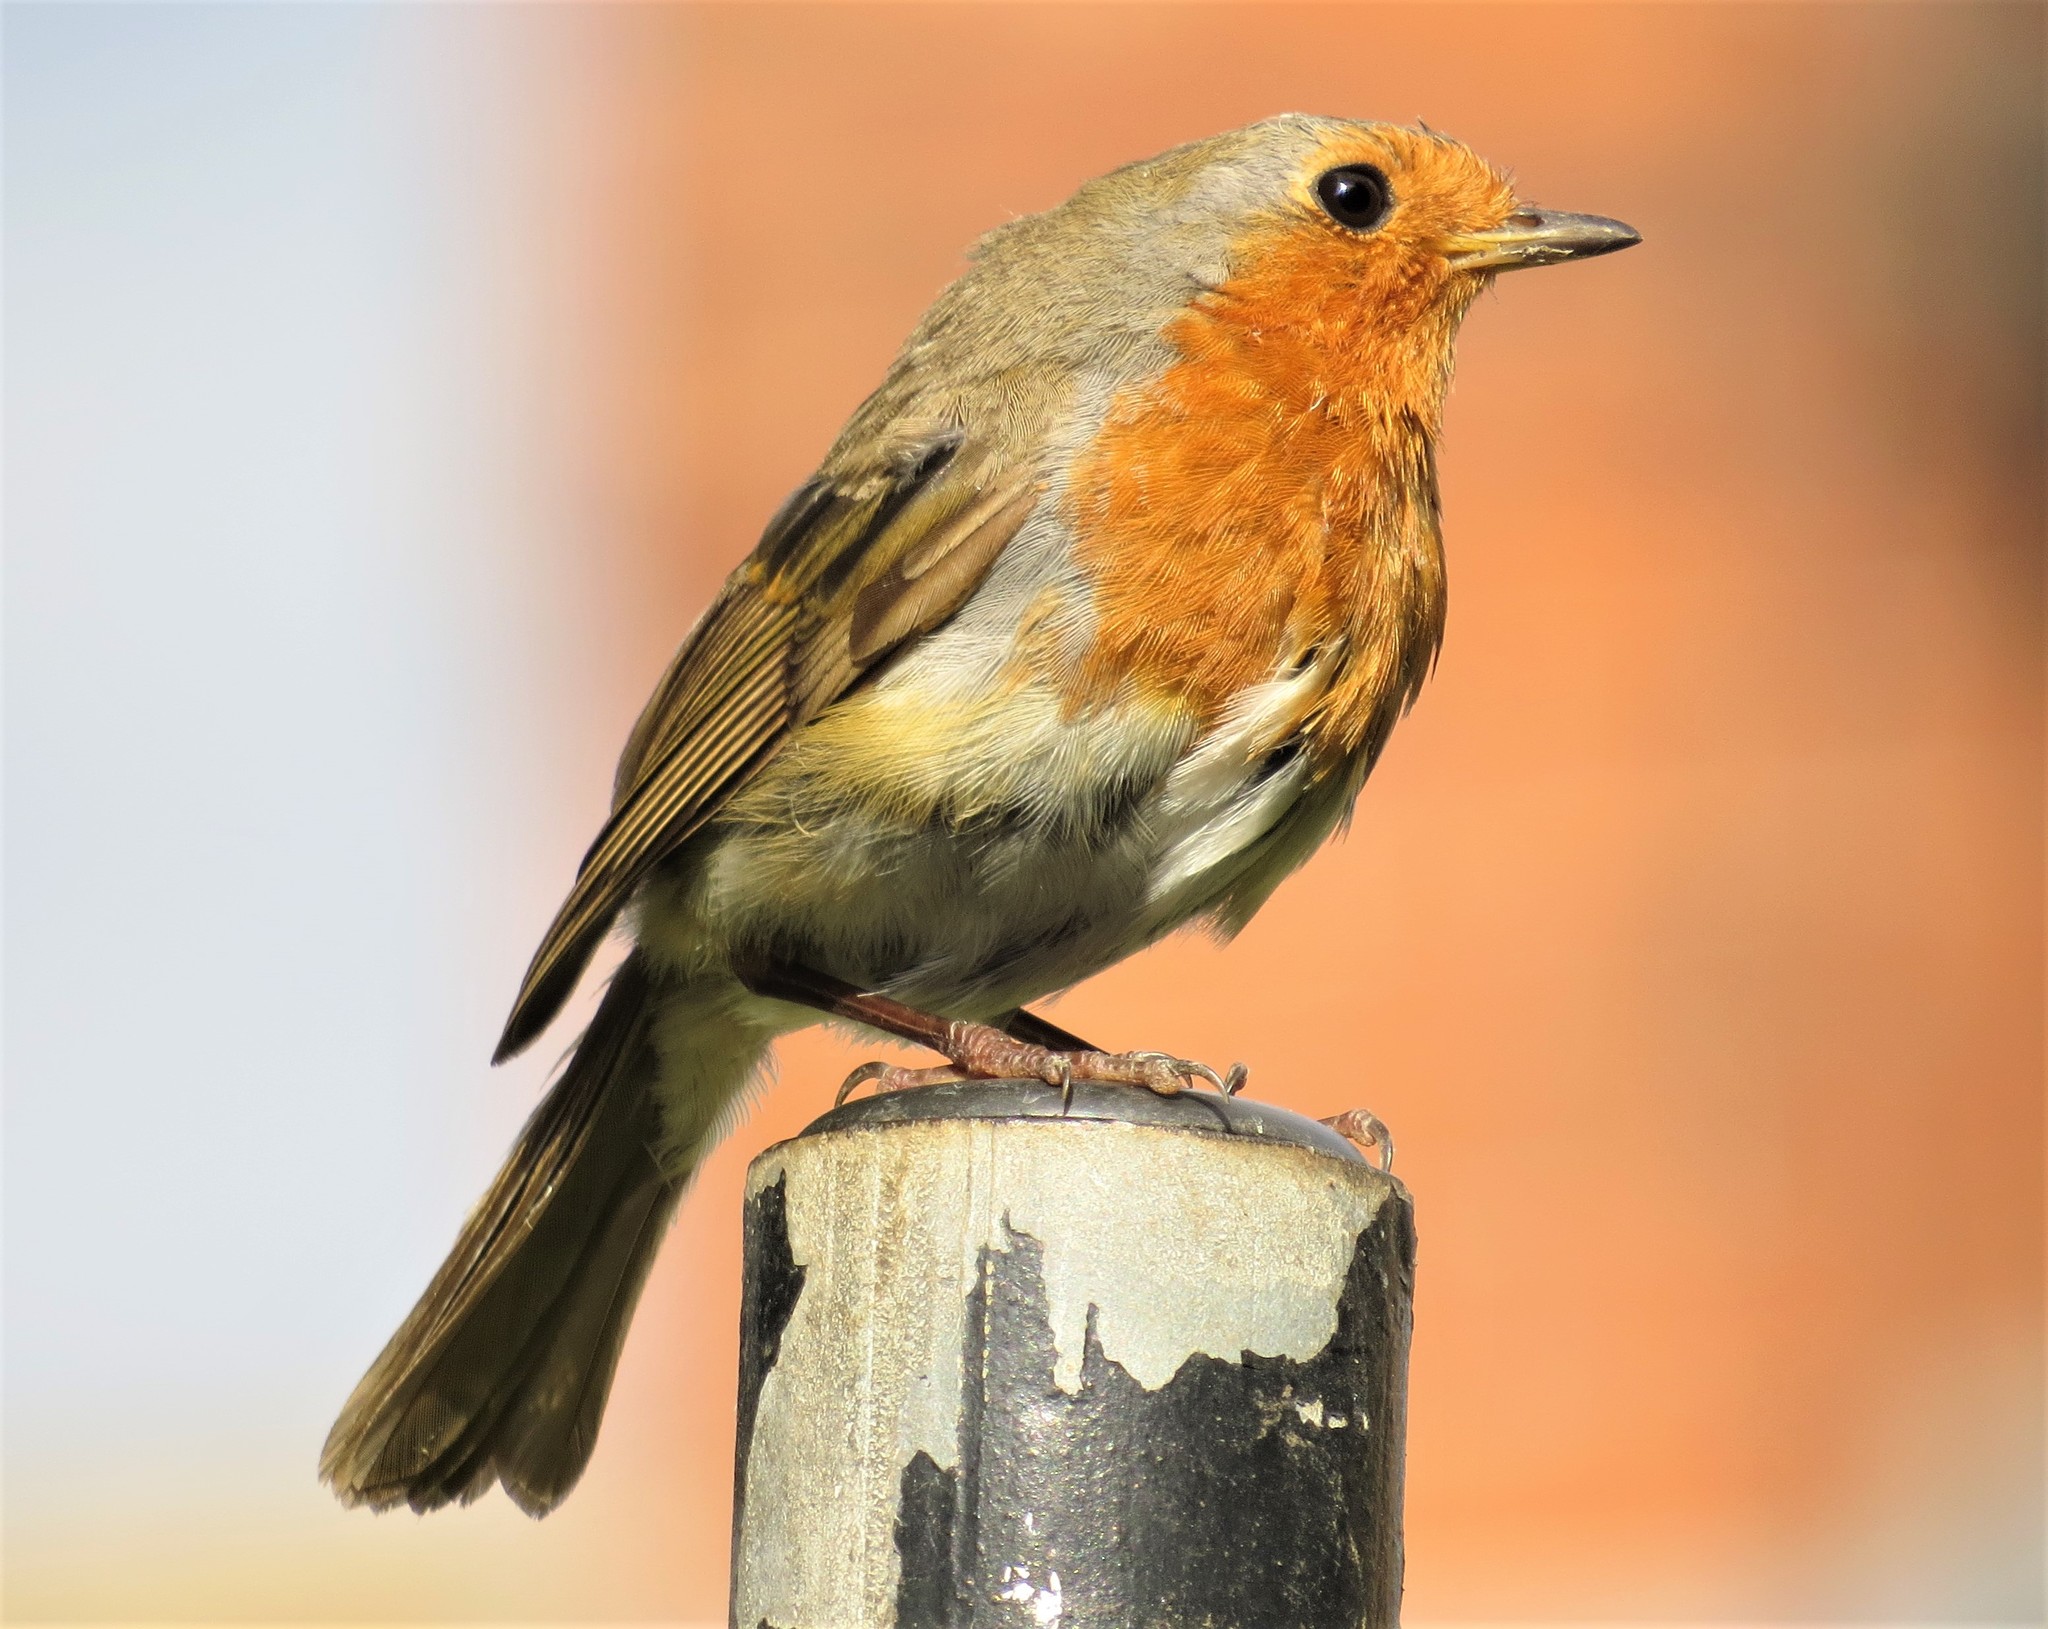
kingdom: Animalia
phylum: Chordata
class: Aves
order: Passeriformes
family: Muscicapidae
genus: Erithacus
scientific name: Erithacus rubecula
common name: European robin
